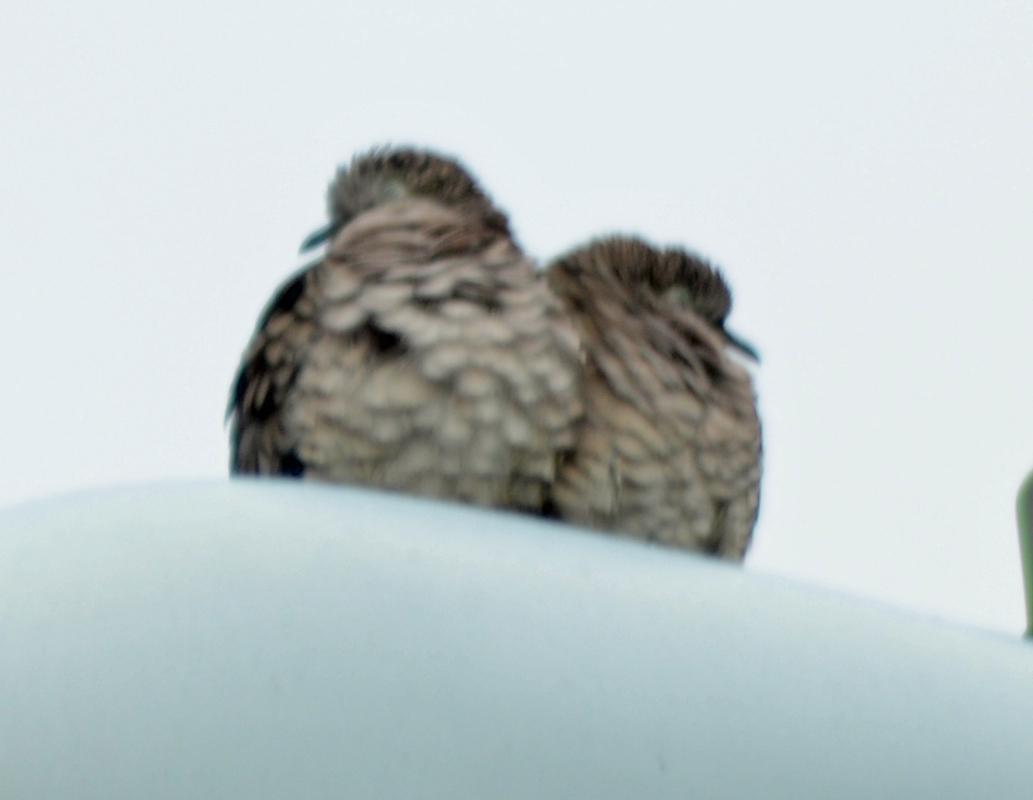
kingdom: Animalia
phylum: Chordata
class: Aves
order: Columbiformes
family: Columbidae
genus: Columbina
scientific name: Columbina inca
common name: Inca dove
